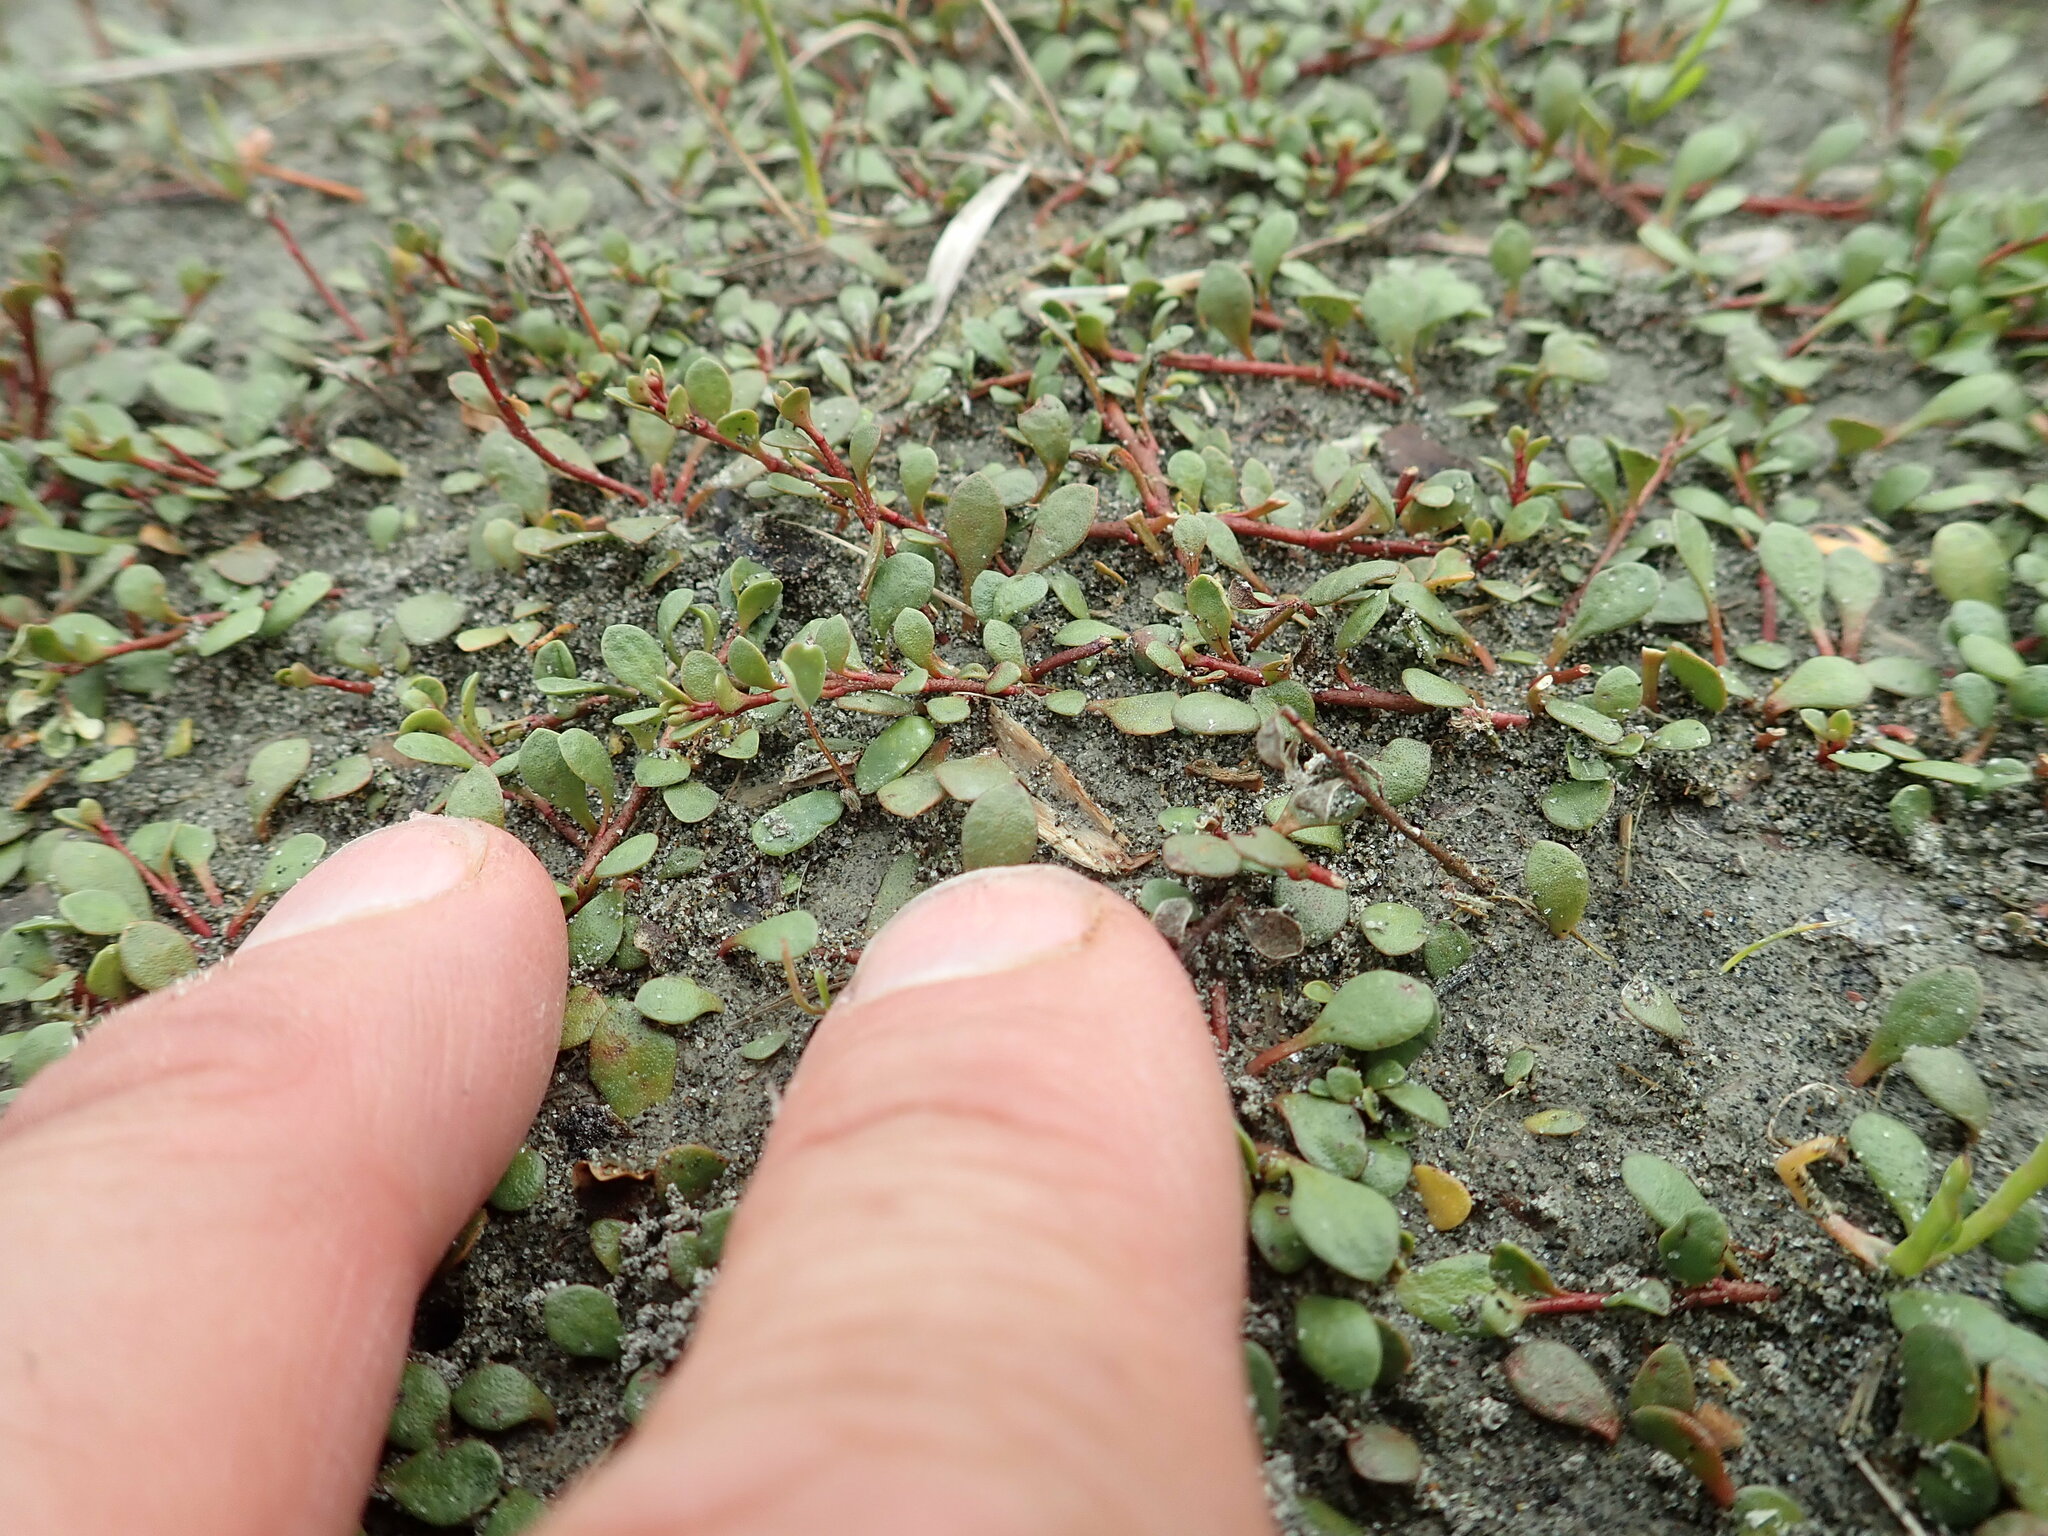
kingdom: Plantae
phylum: Tracheophyta
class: Magnoliopsida
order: Ericales
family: Primulaceae
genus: Samolus
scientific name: Samolus repens
